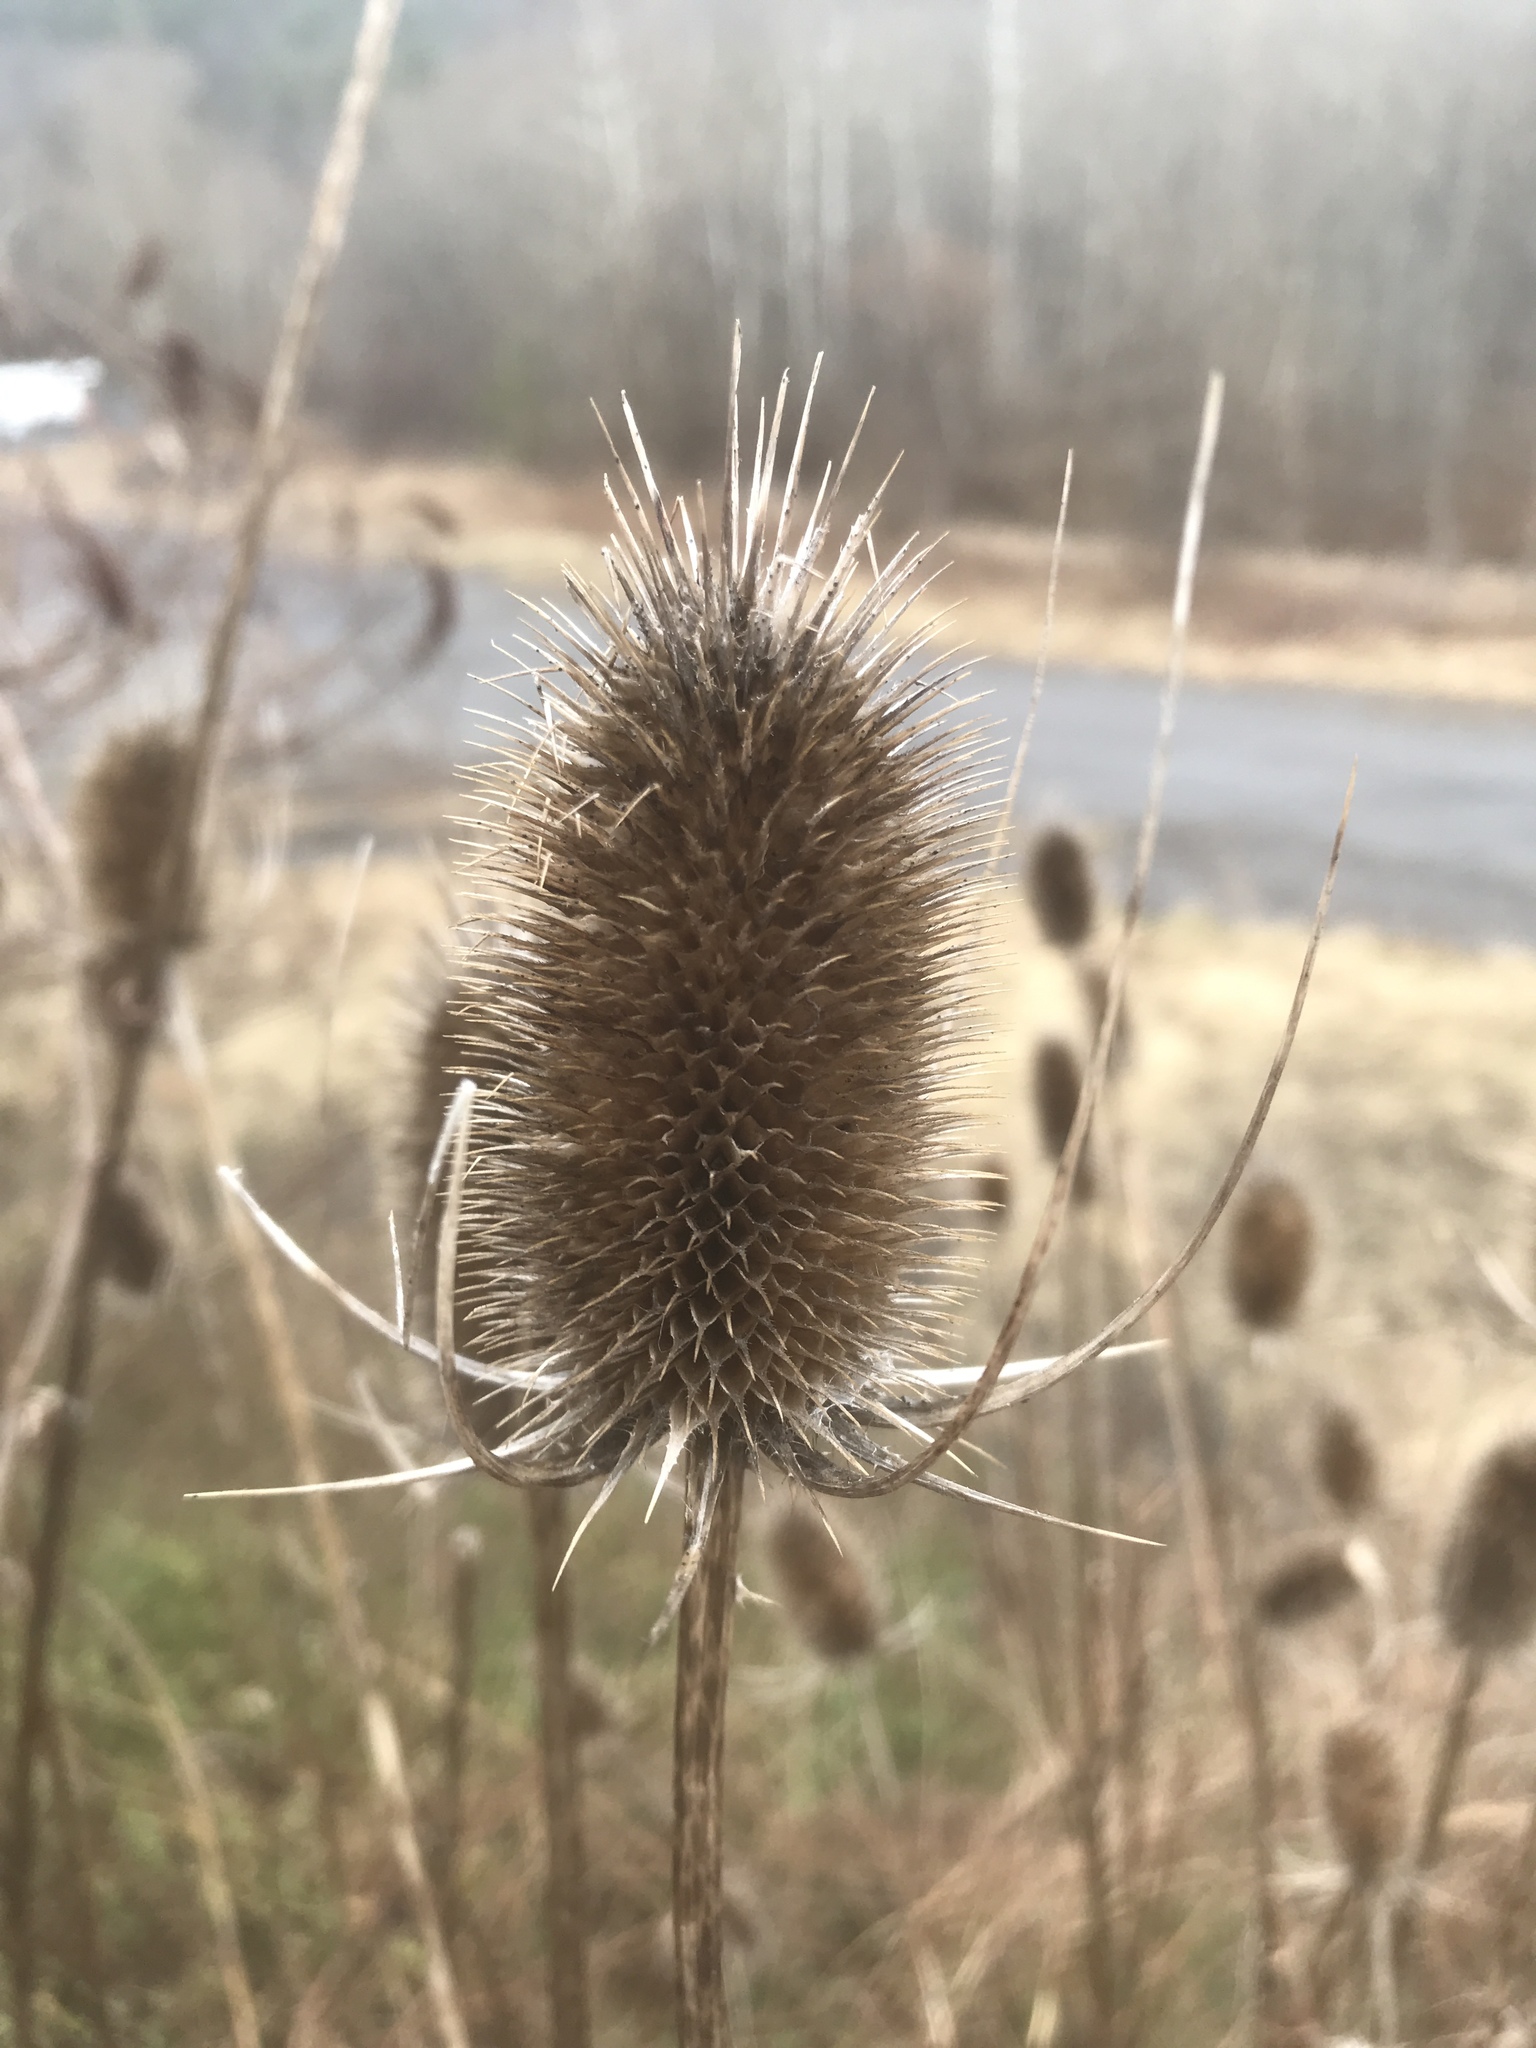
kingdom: Plantae
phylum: Tracheophyta
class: Magnoliopsida
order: Dipsacales
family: Caprifoliaceae
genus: Dipsacus
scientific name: Dipsacus fullonum
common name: Teasel
